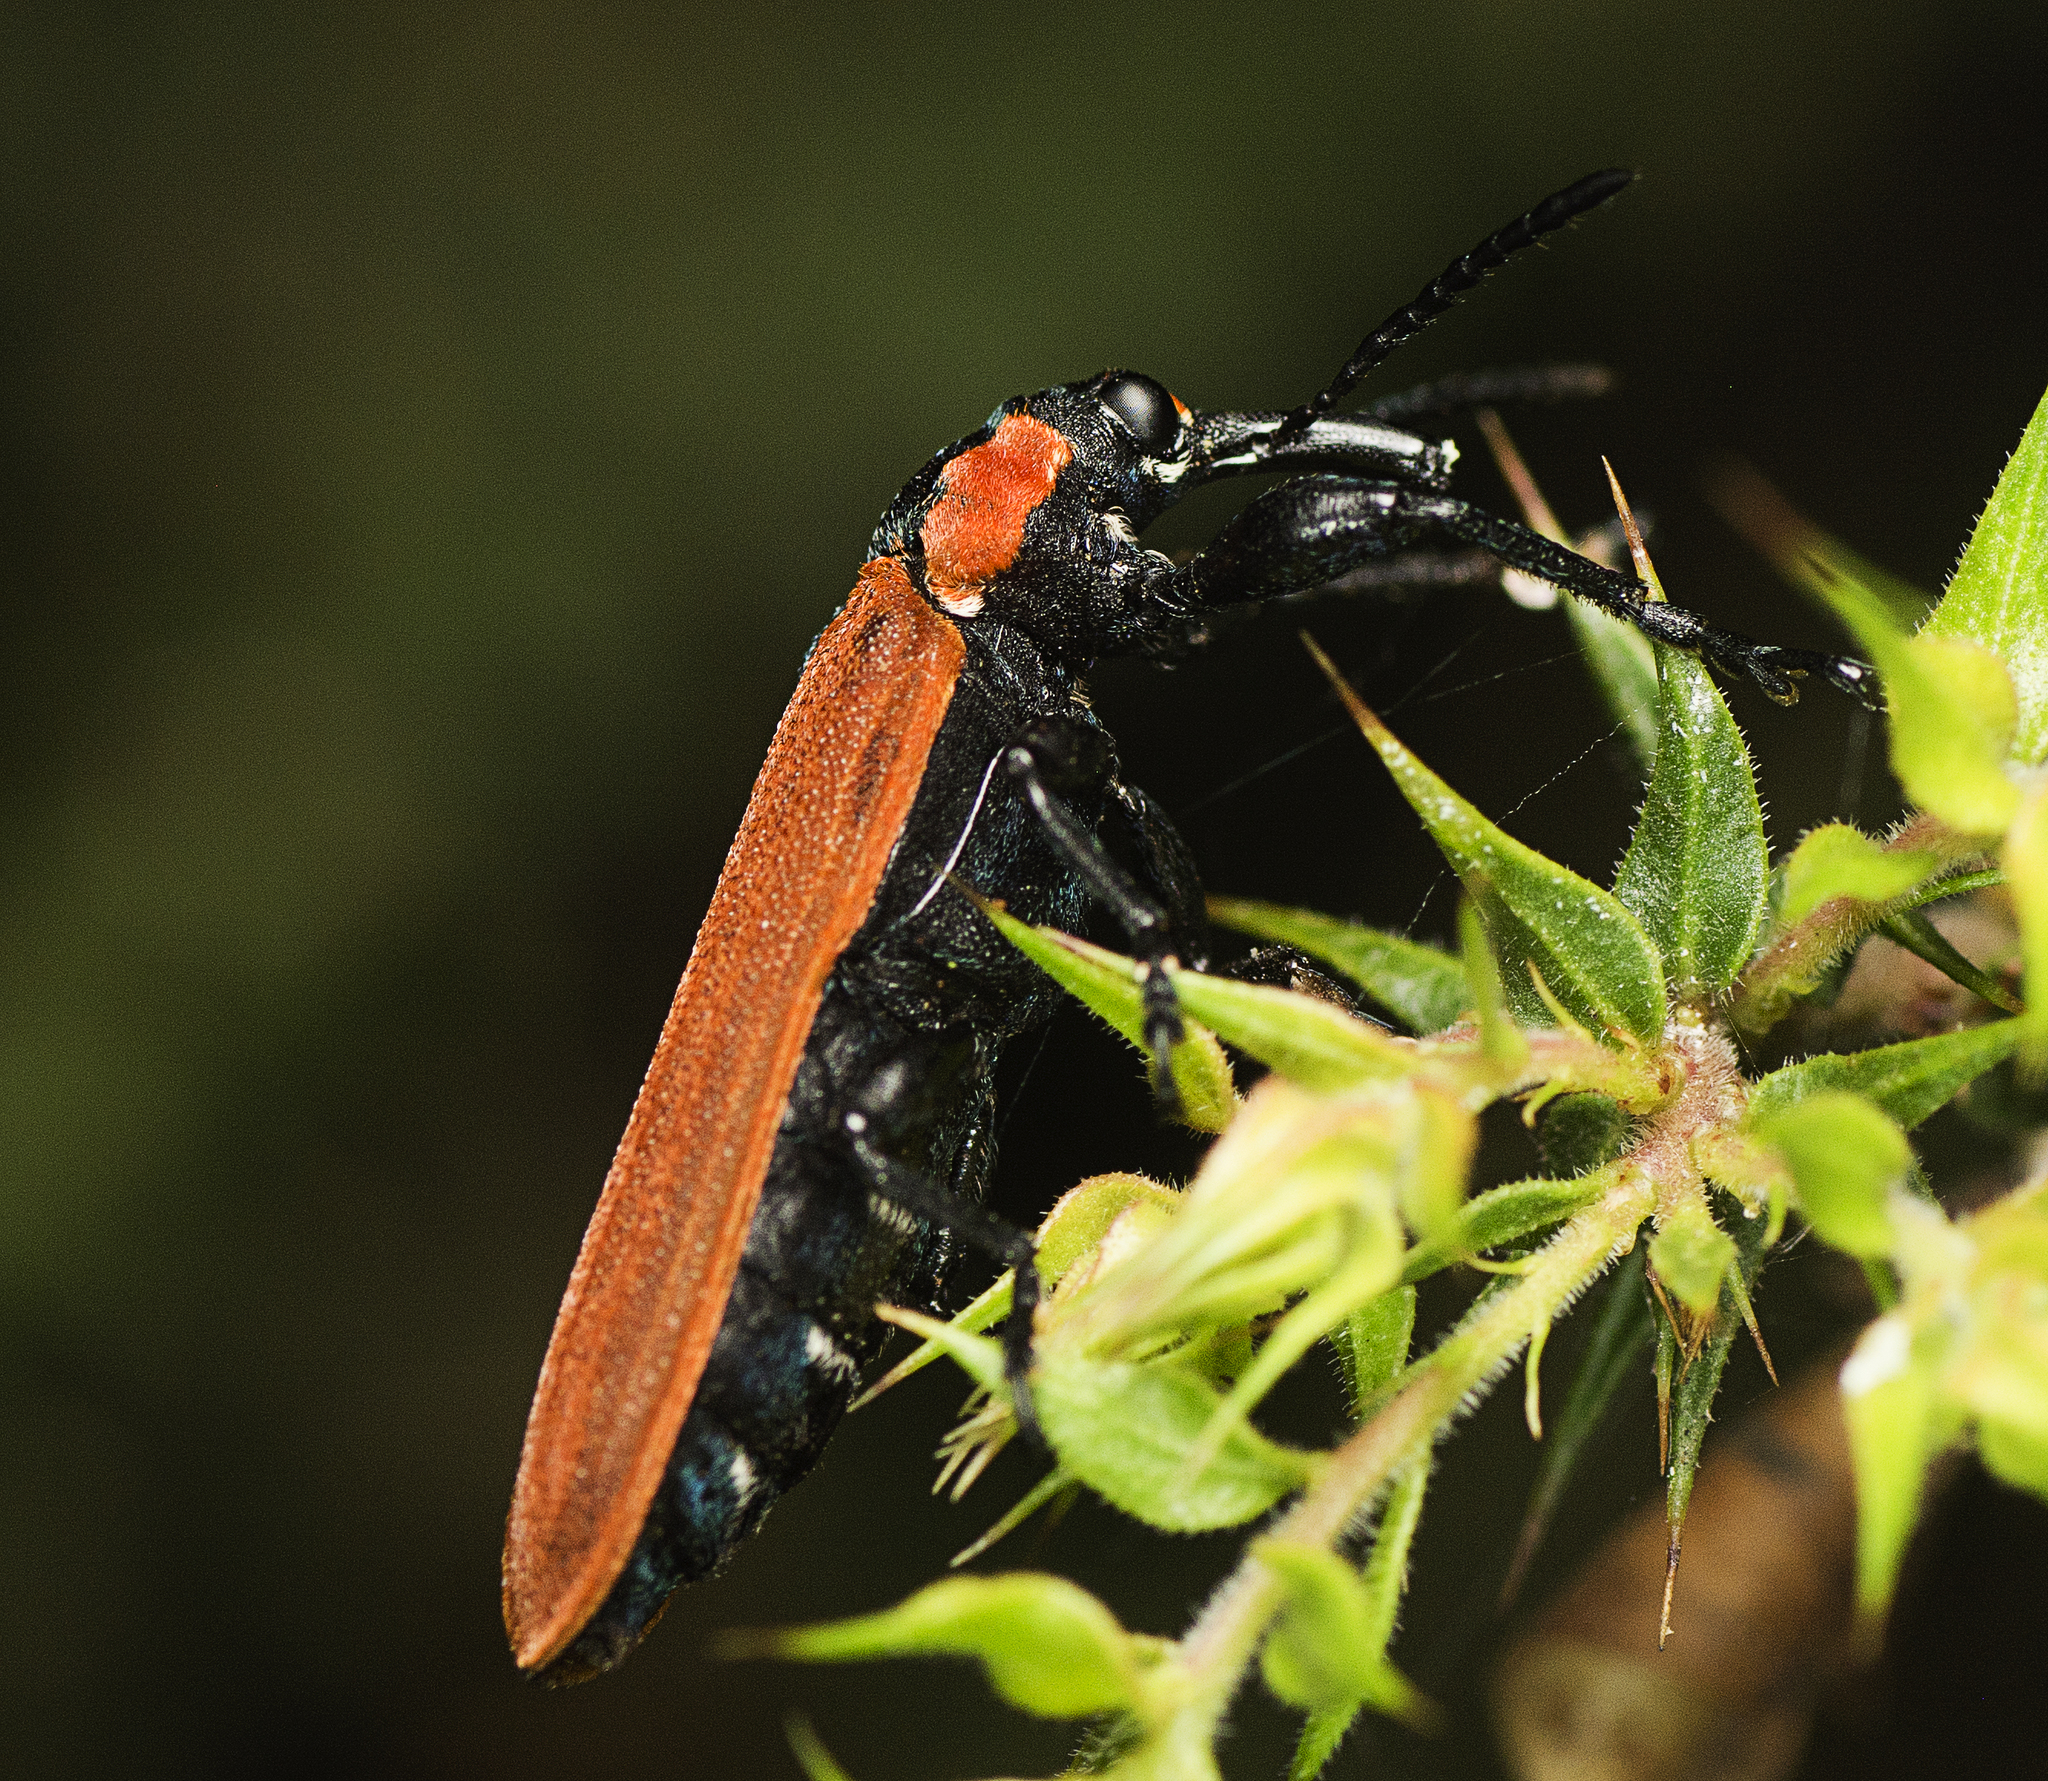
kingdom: Animalia
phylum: Arthropoda
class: Insecta
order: Coleoptera
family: Belidae
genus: Rhinotia
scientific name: Rhinotia haemoptera
